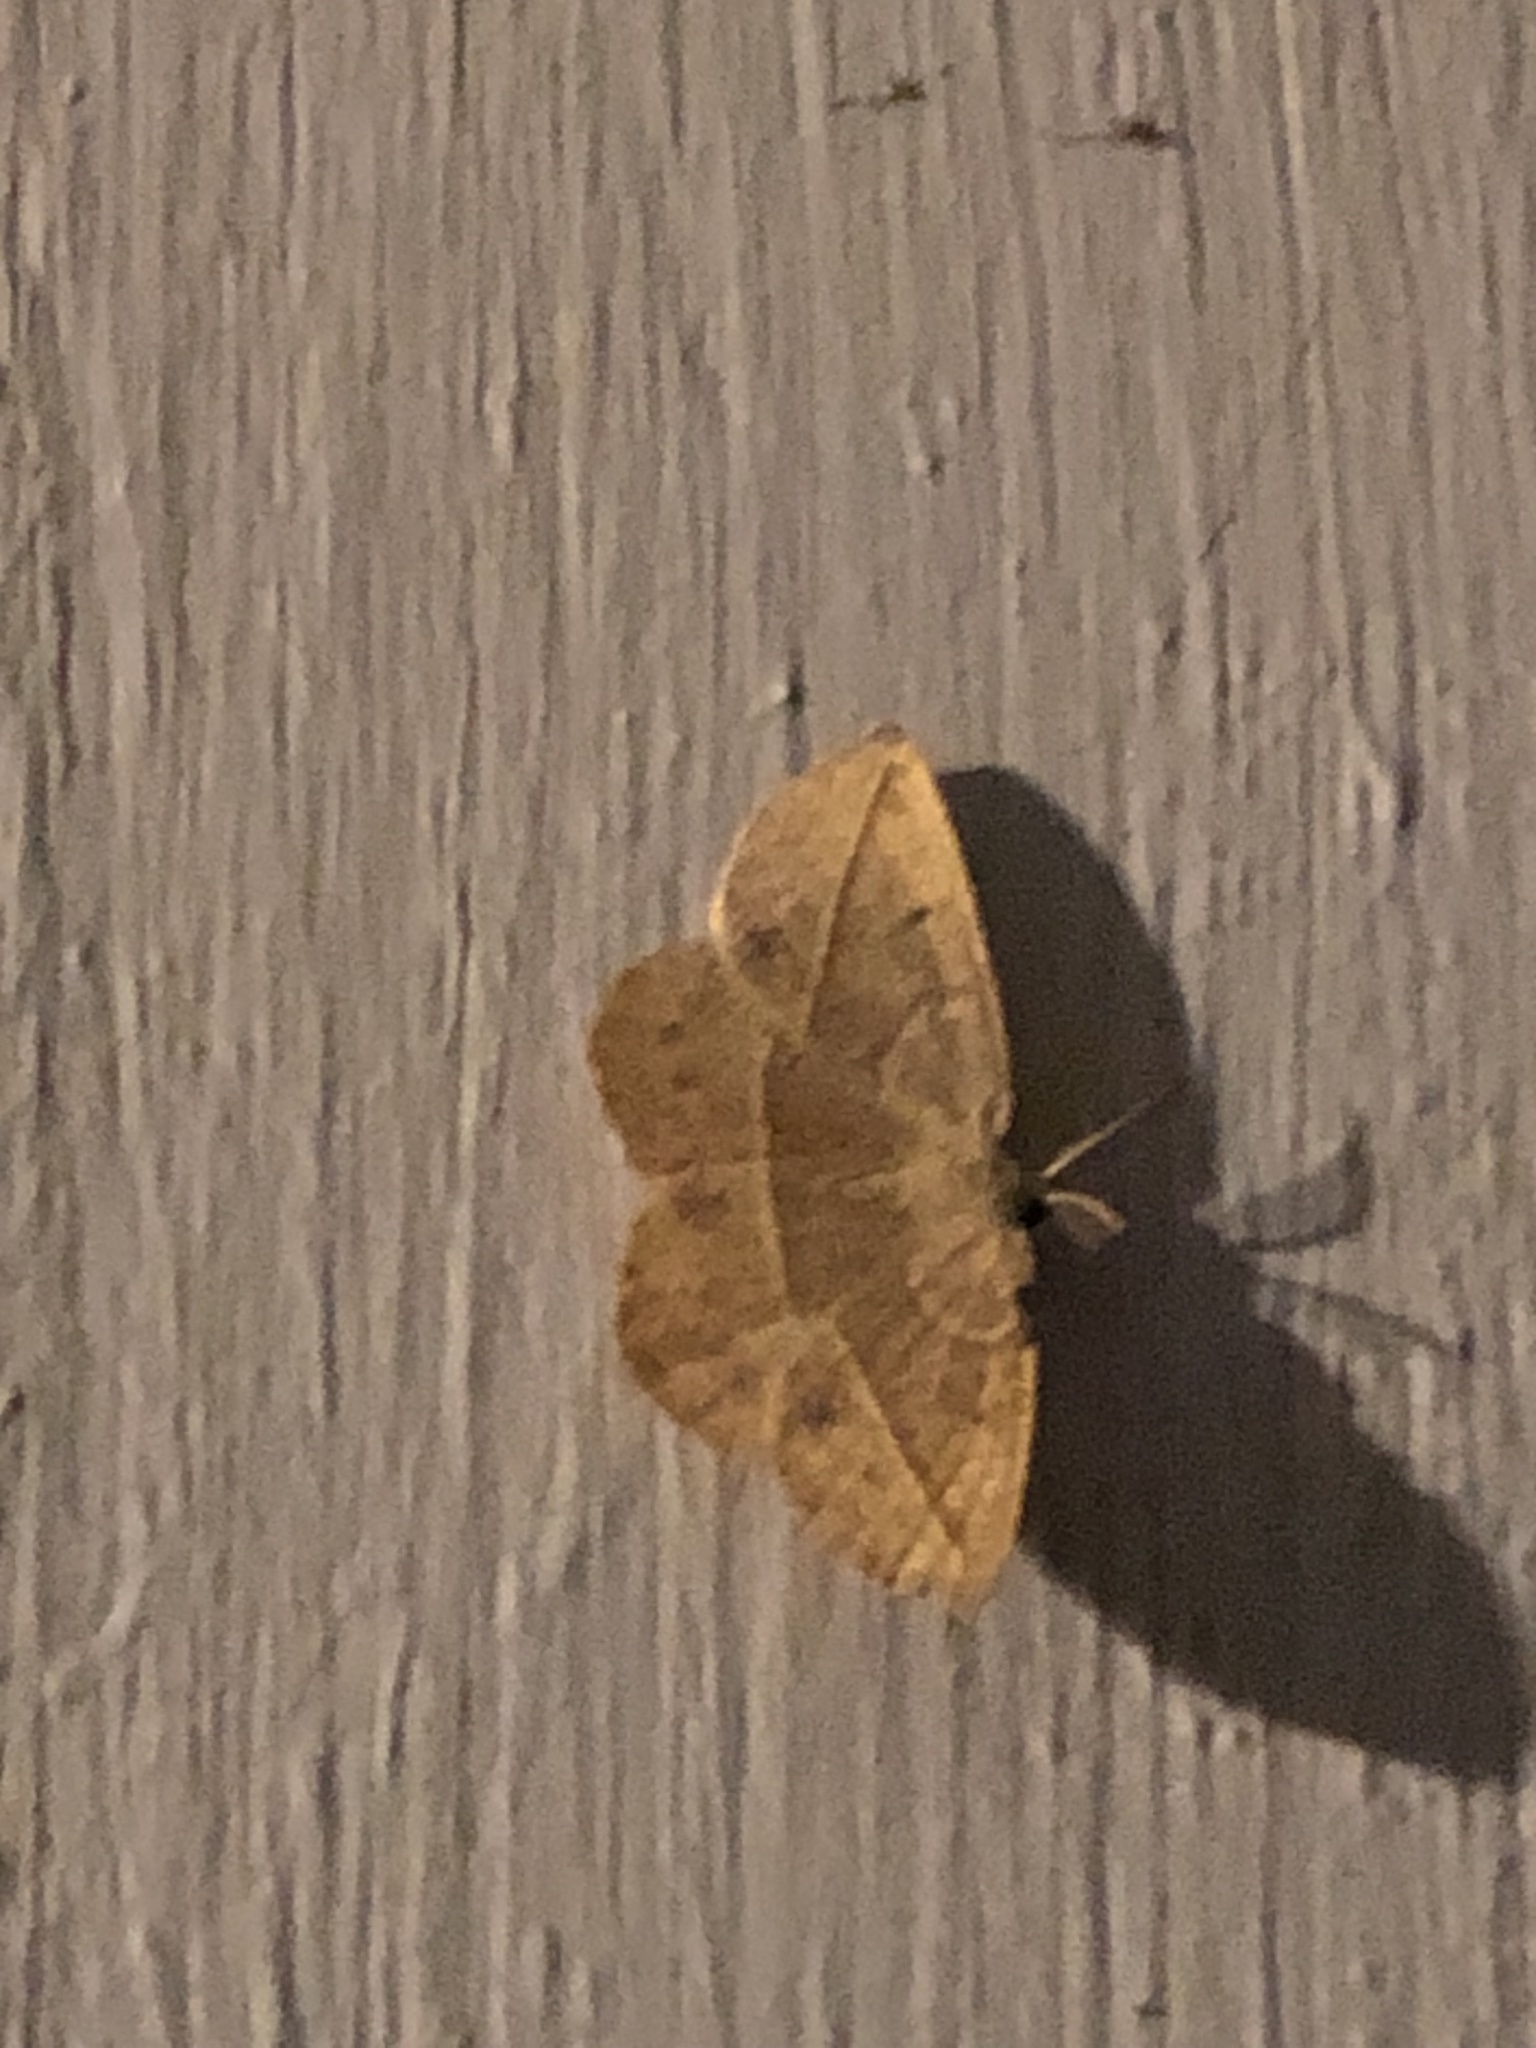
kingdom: Animalia
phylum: Arthropoda
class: Insecta
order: Lepidoptera
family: Geometridae
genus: Eusarca
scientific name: Eusarca confusaria
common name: Confused eusarca
